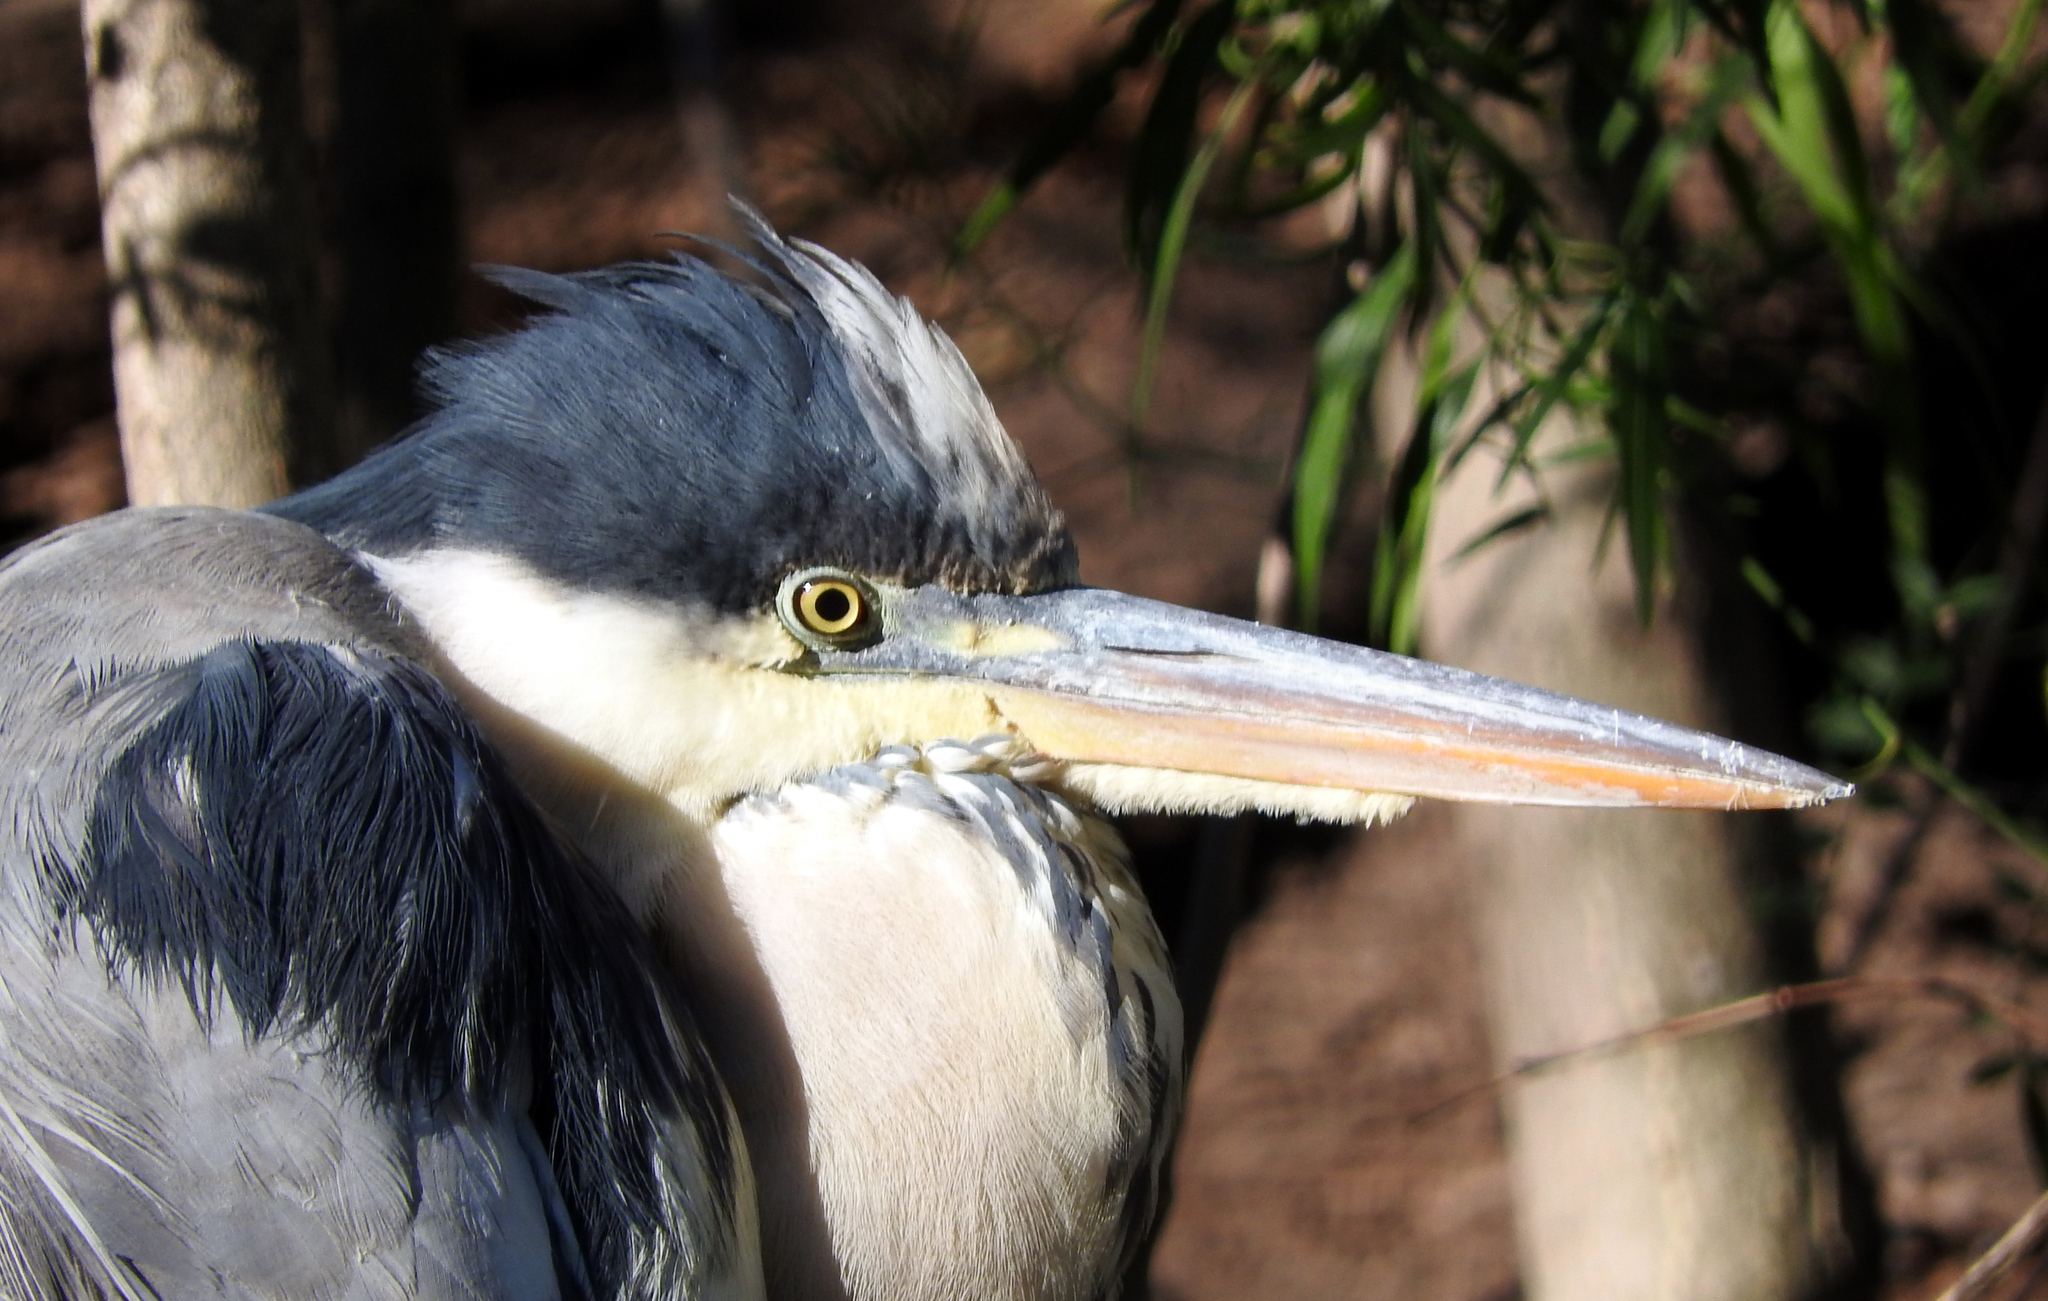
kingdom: Animalia
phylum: Chordata
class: Aves
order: Pelecaniformes
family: Ardeidae
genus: Ardea
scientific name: Ardea cocoi
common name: Cocoi heron
